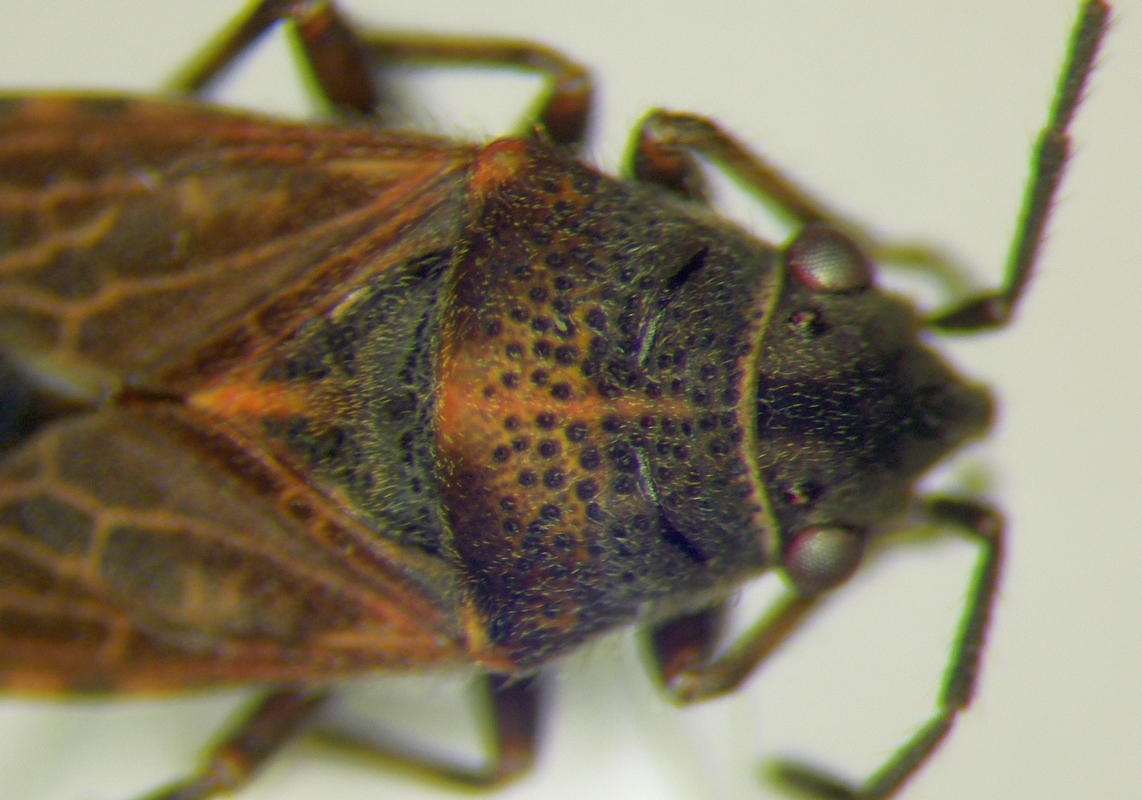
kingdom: Animalia
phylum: Arthropoda
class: Insecta
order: Hemiptera
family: Lygaeidae
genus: Lygaeosoma
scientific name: Lygaeosoma sardeum
